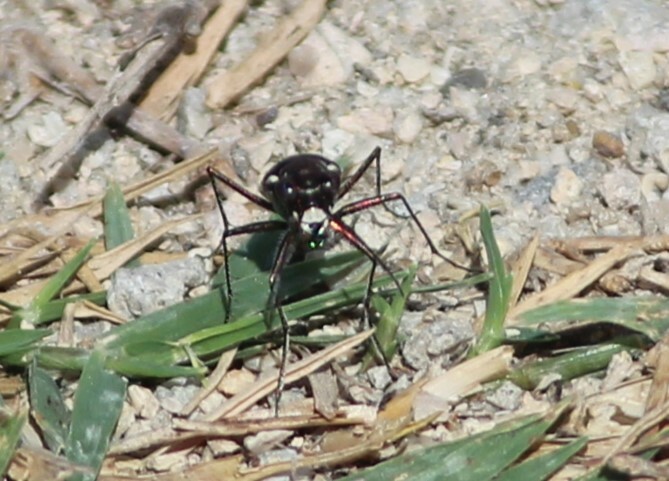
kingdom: Animalia
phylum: Arthropoda
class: Insecta
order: Coleoptera
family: Carabidae
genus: Cicindela
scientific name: Cicindela punctulata
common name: Punctured tiger beetle
